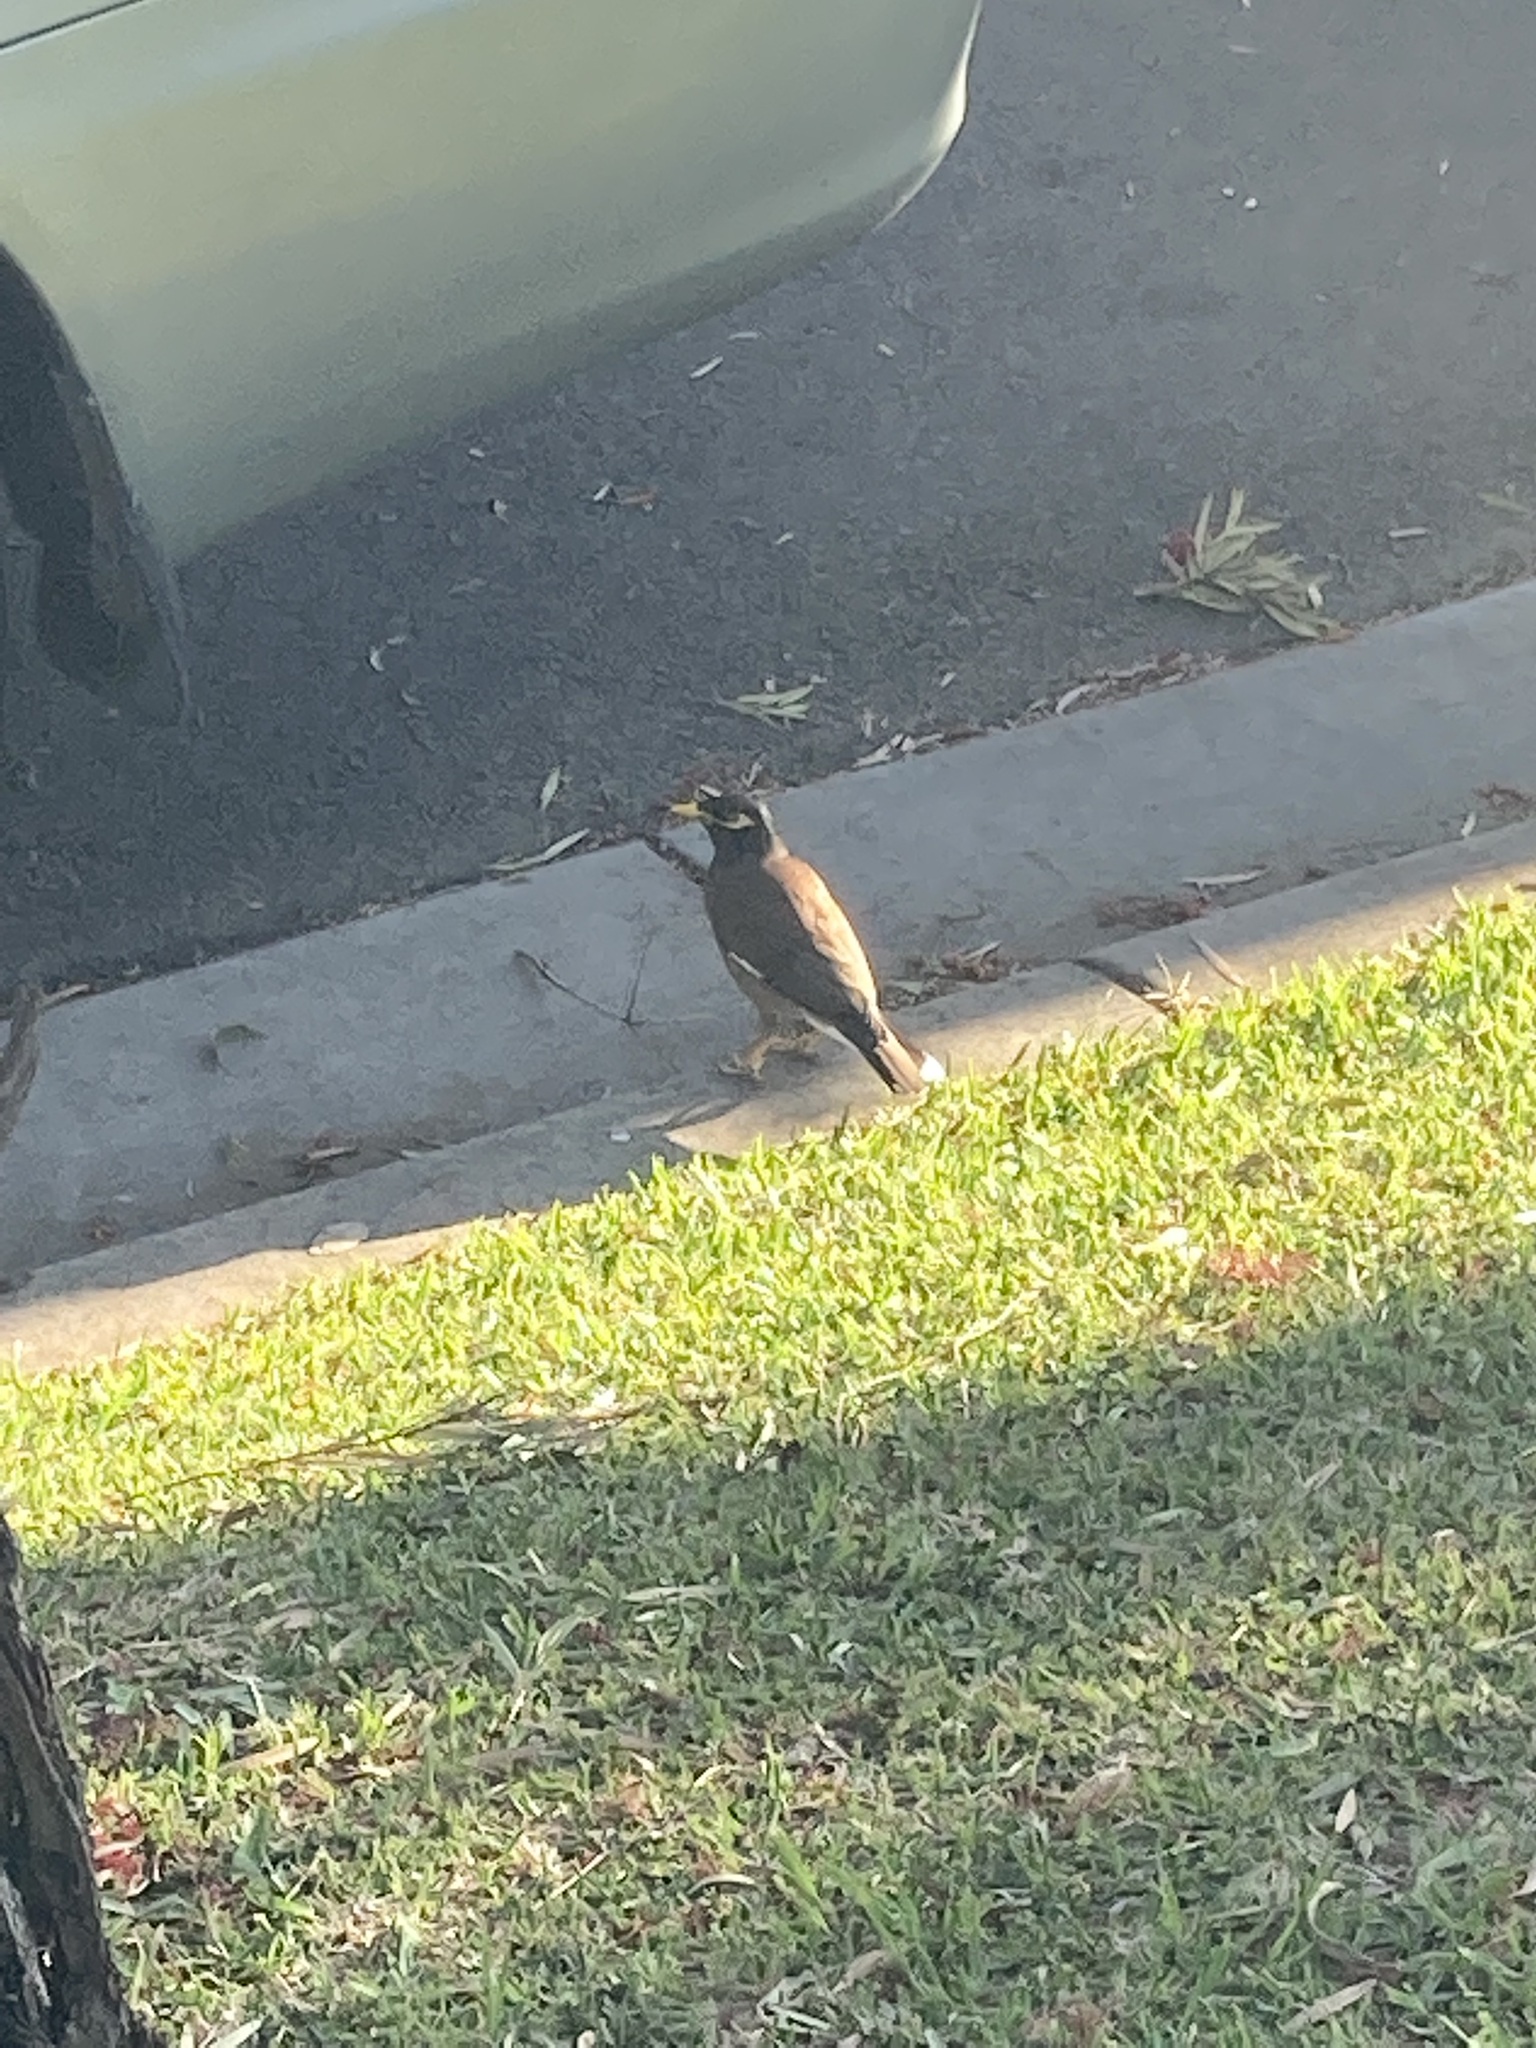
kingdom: Animalia
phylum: Chordata
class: Aves
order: Passeriformes
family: Sturnidae
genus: Acridotheres
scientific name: Acridotheres tristis
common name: Common myna
